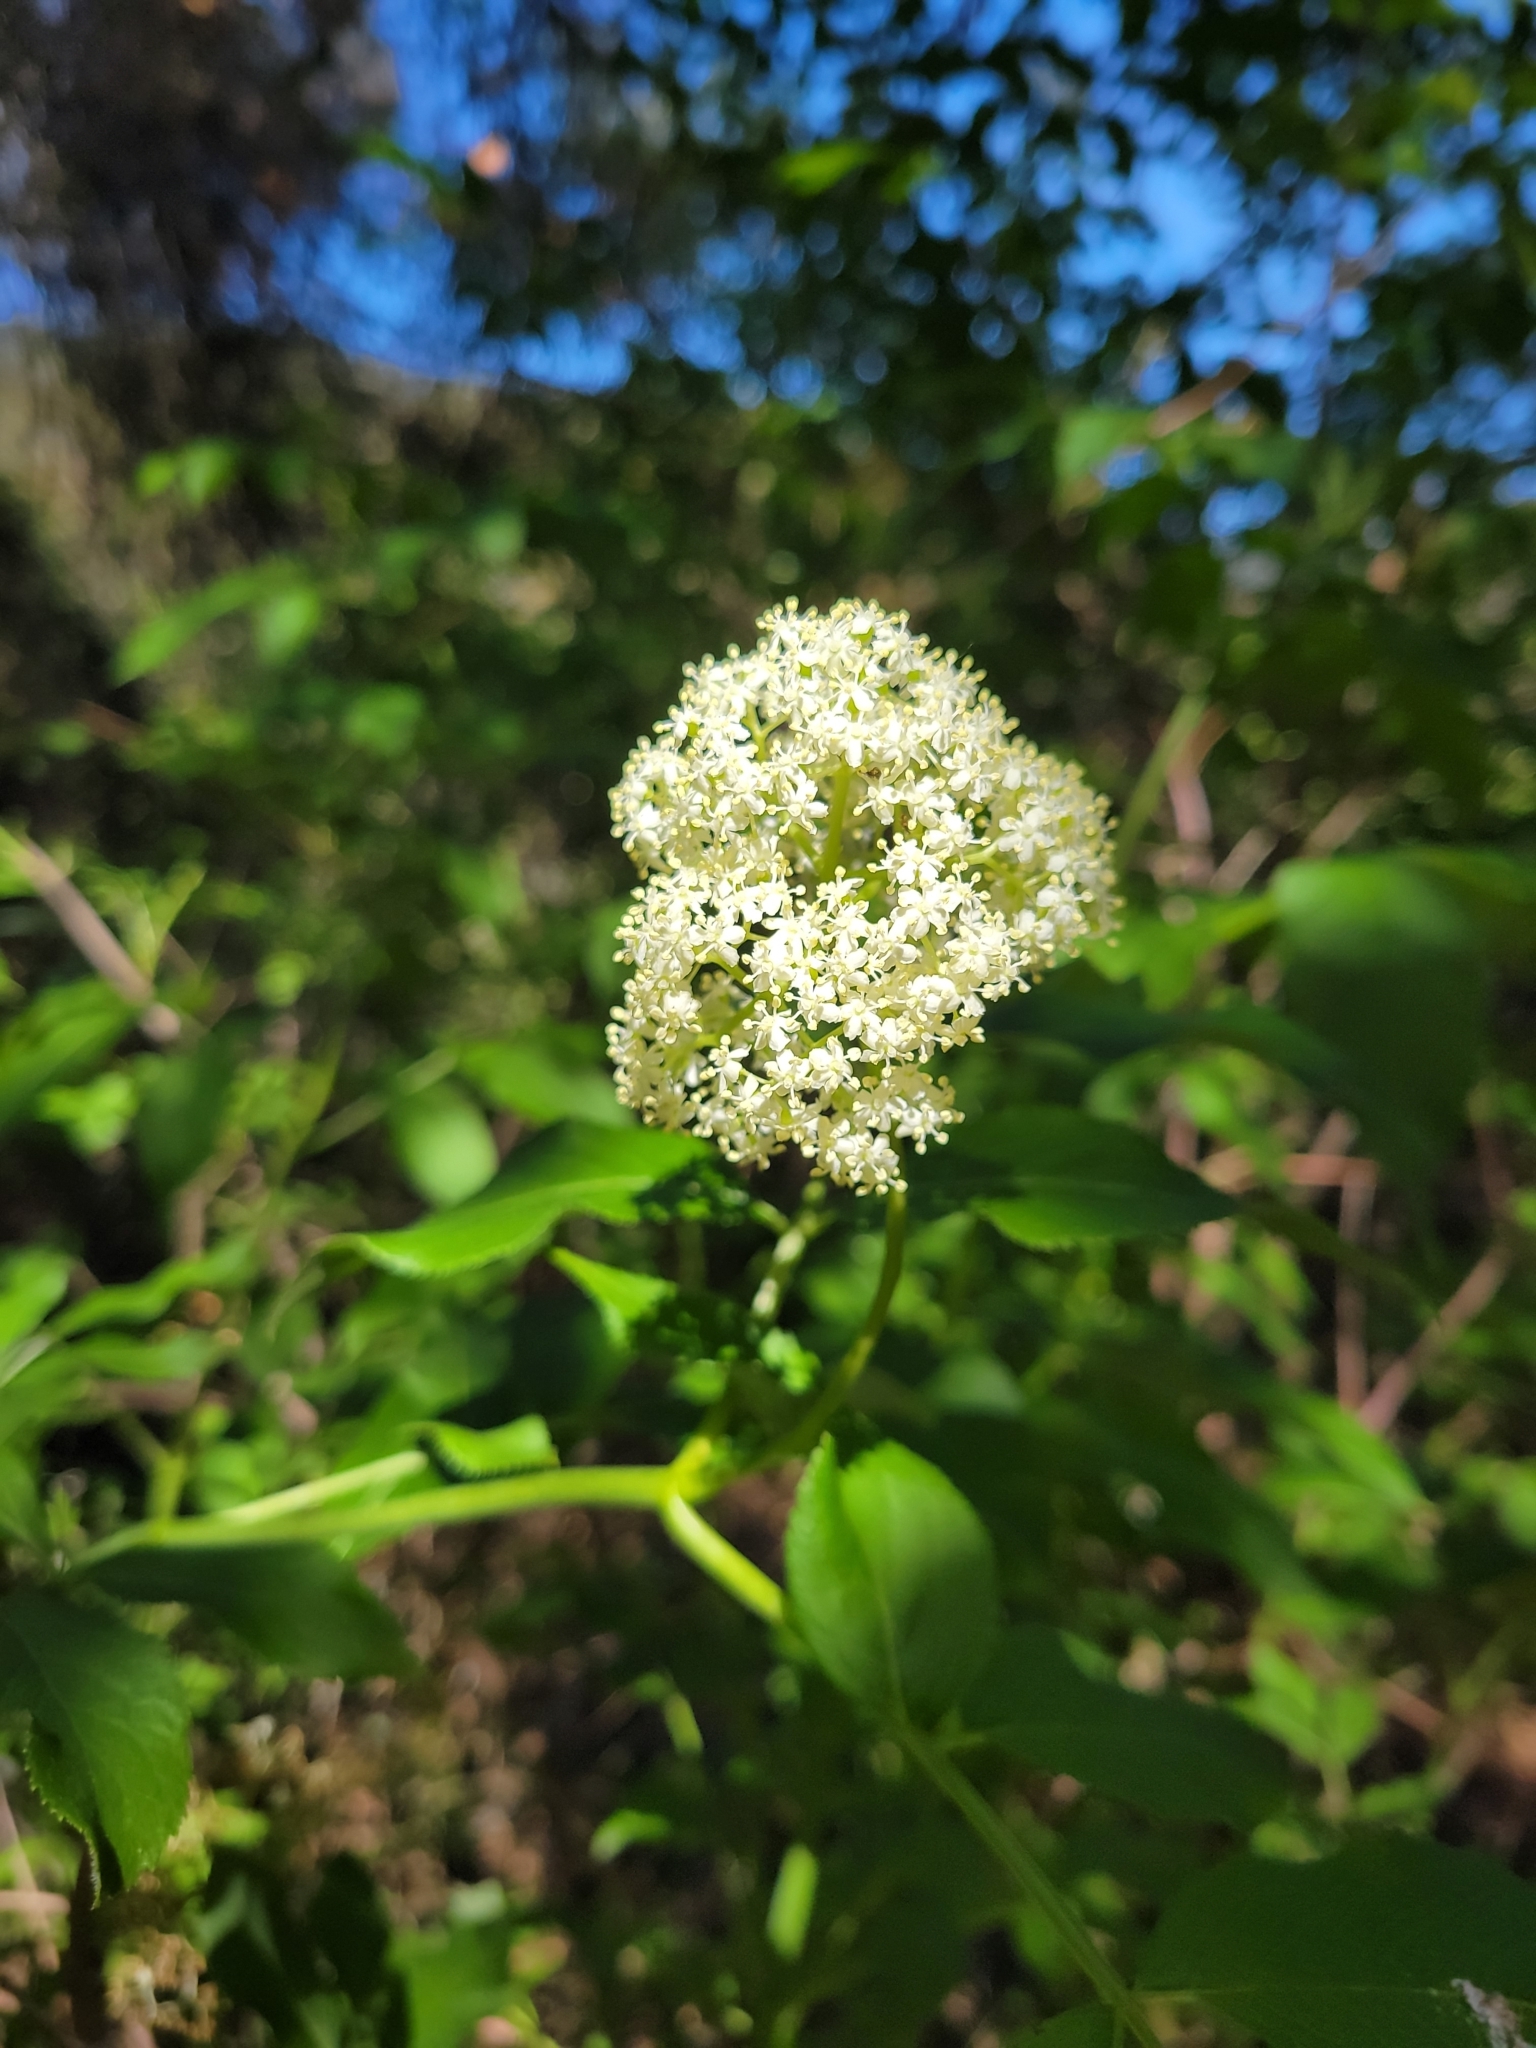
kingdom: Plantae
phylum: Tracheophyta
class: Magnoliopsida
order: Dipsacales
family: Viburnaceae
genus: Sambucus
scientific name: Sambucus racemosa
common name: Red-berried elder
